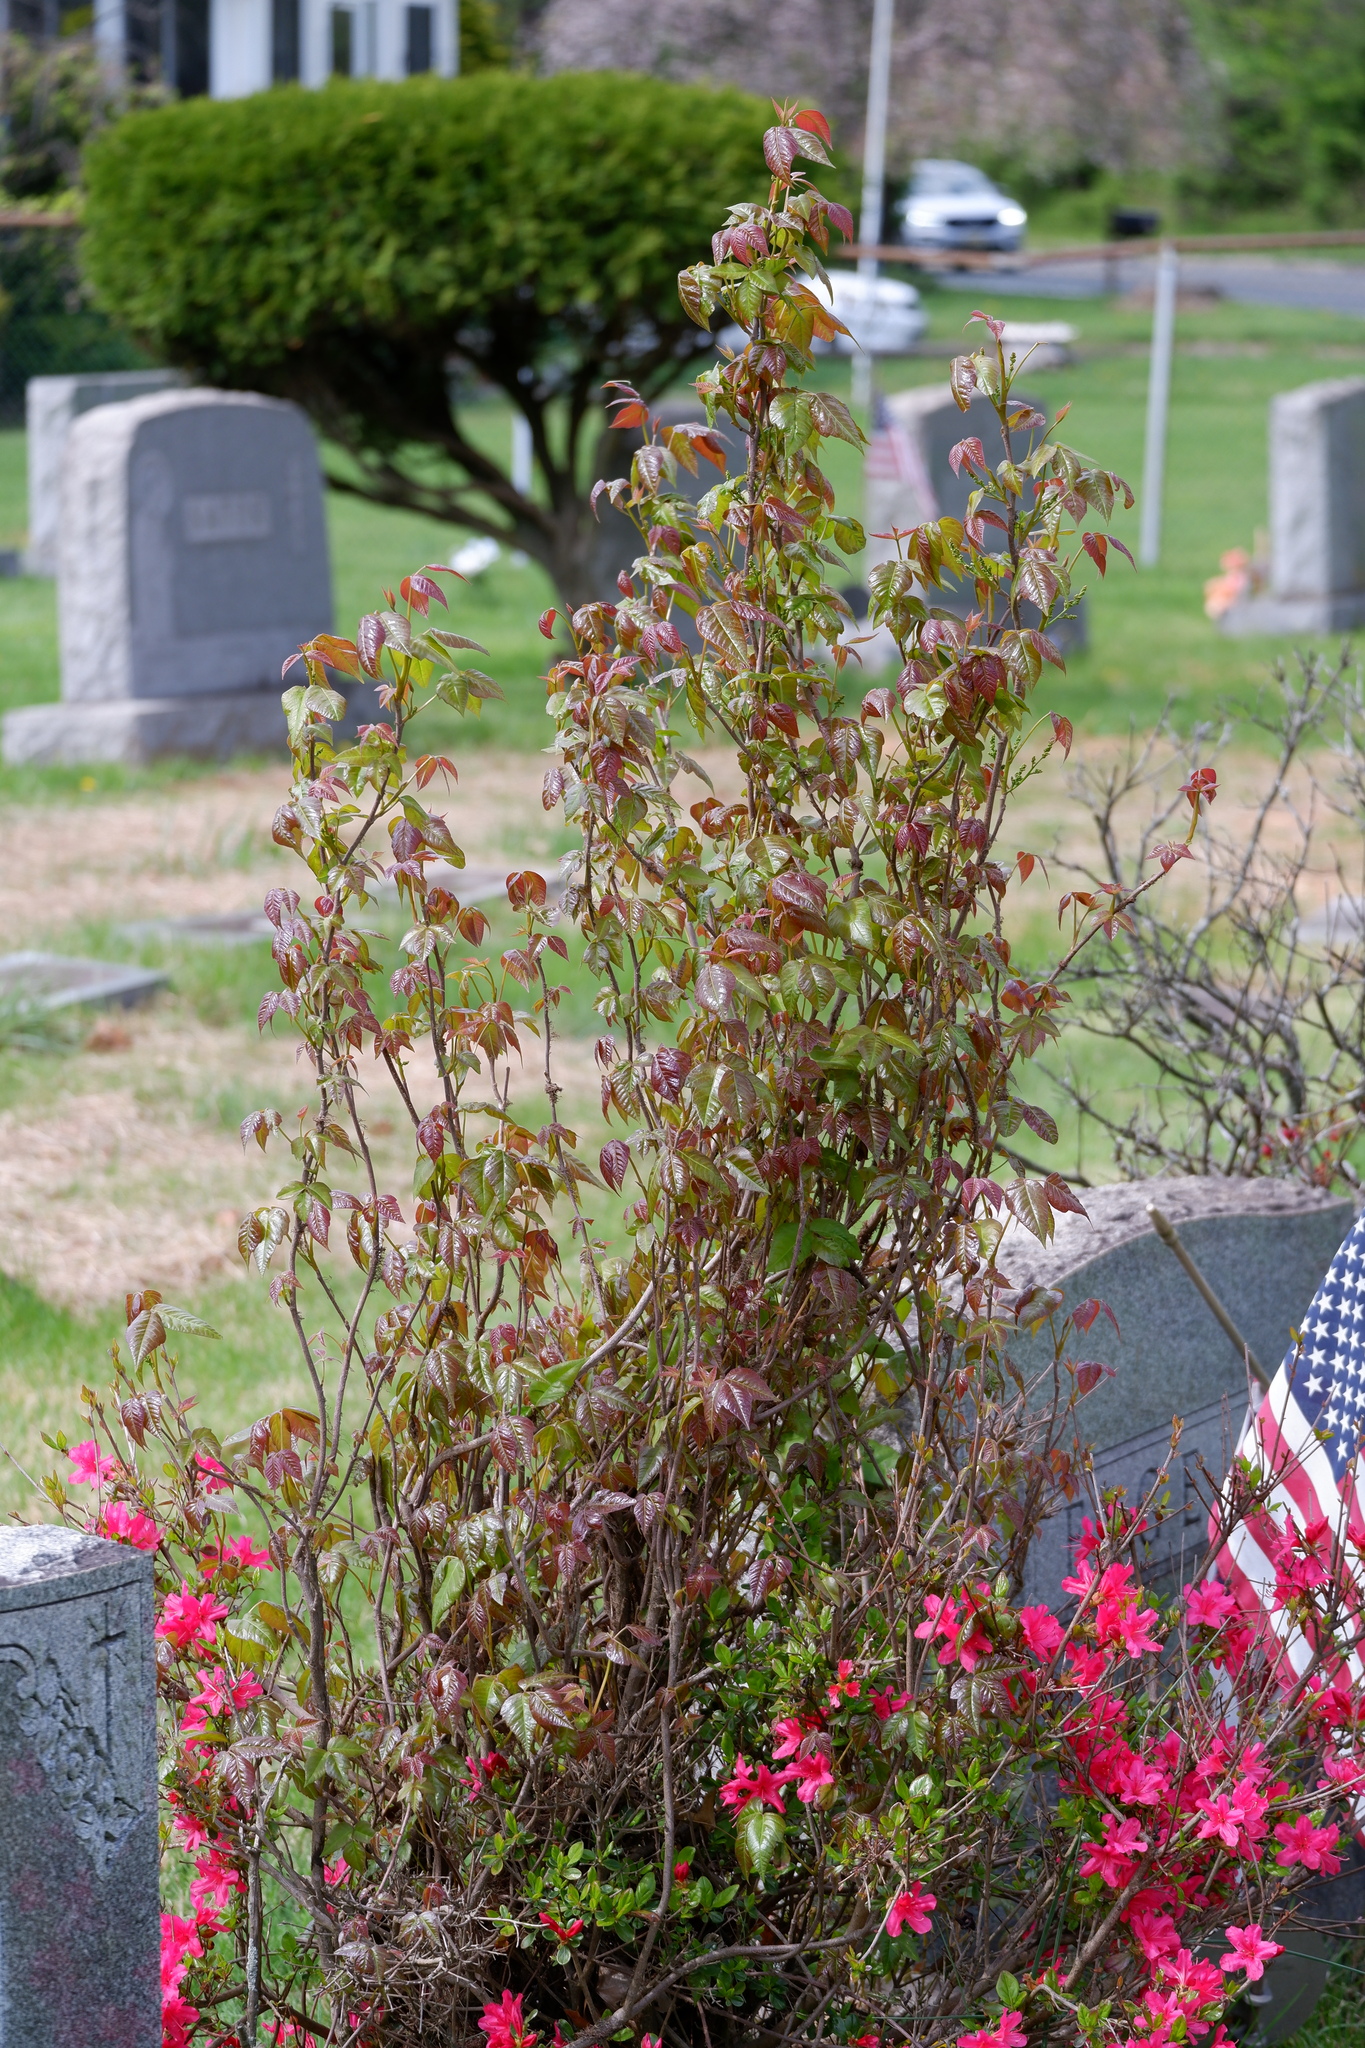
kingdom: Plantae
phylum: Tracheophyta
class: Magnoliopsida
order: Sapindales
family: Anacardiaceae
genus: Toxicodendron
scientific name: Toxicodendron radicans
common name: Poison ivy
